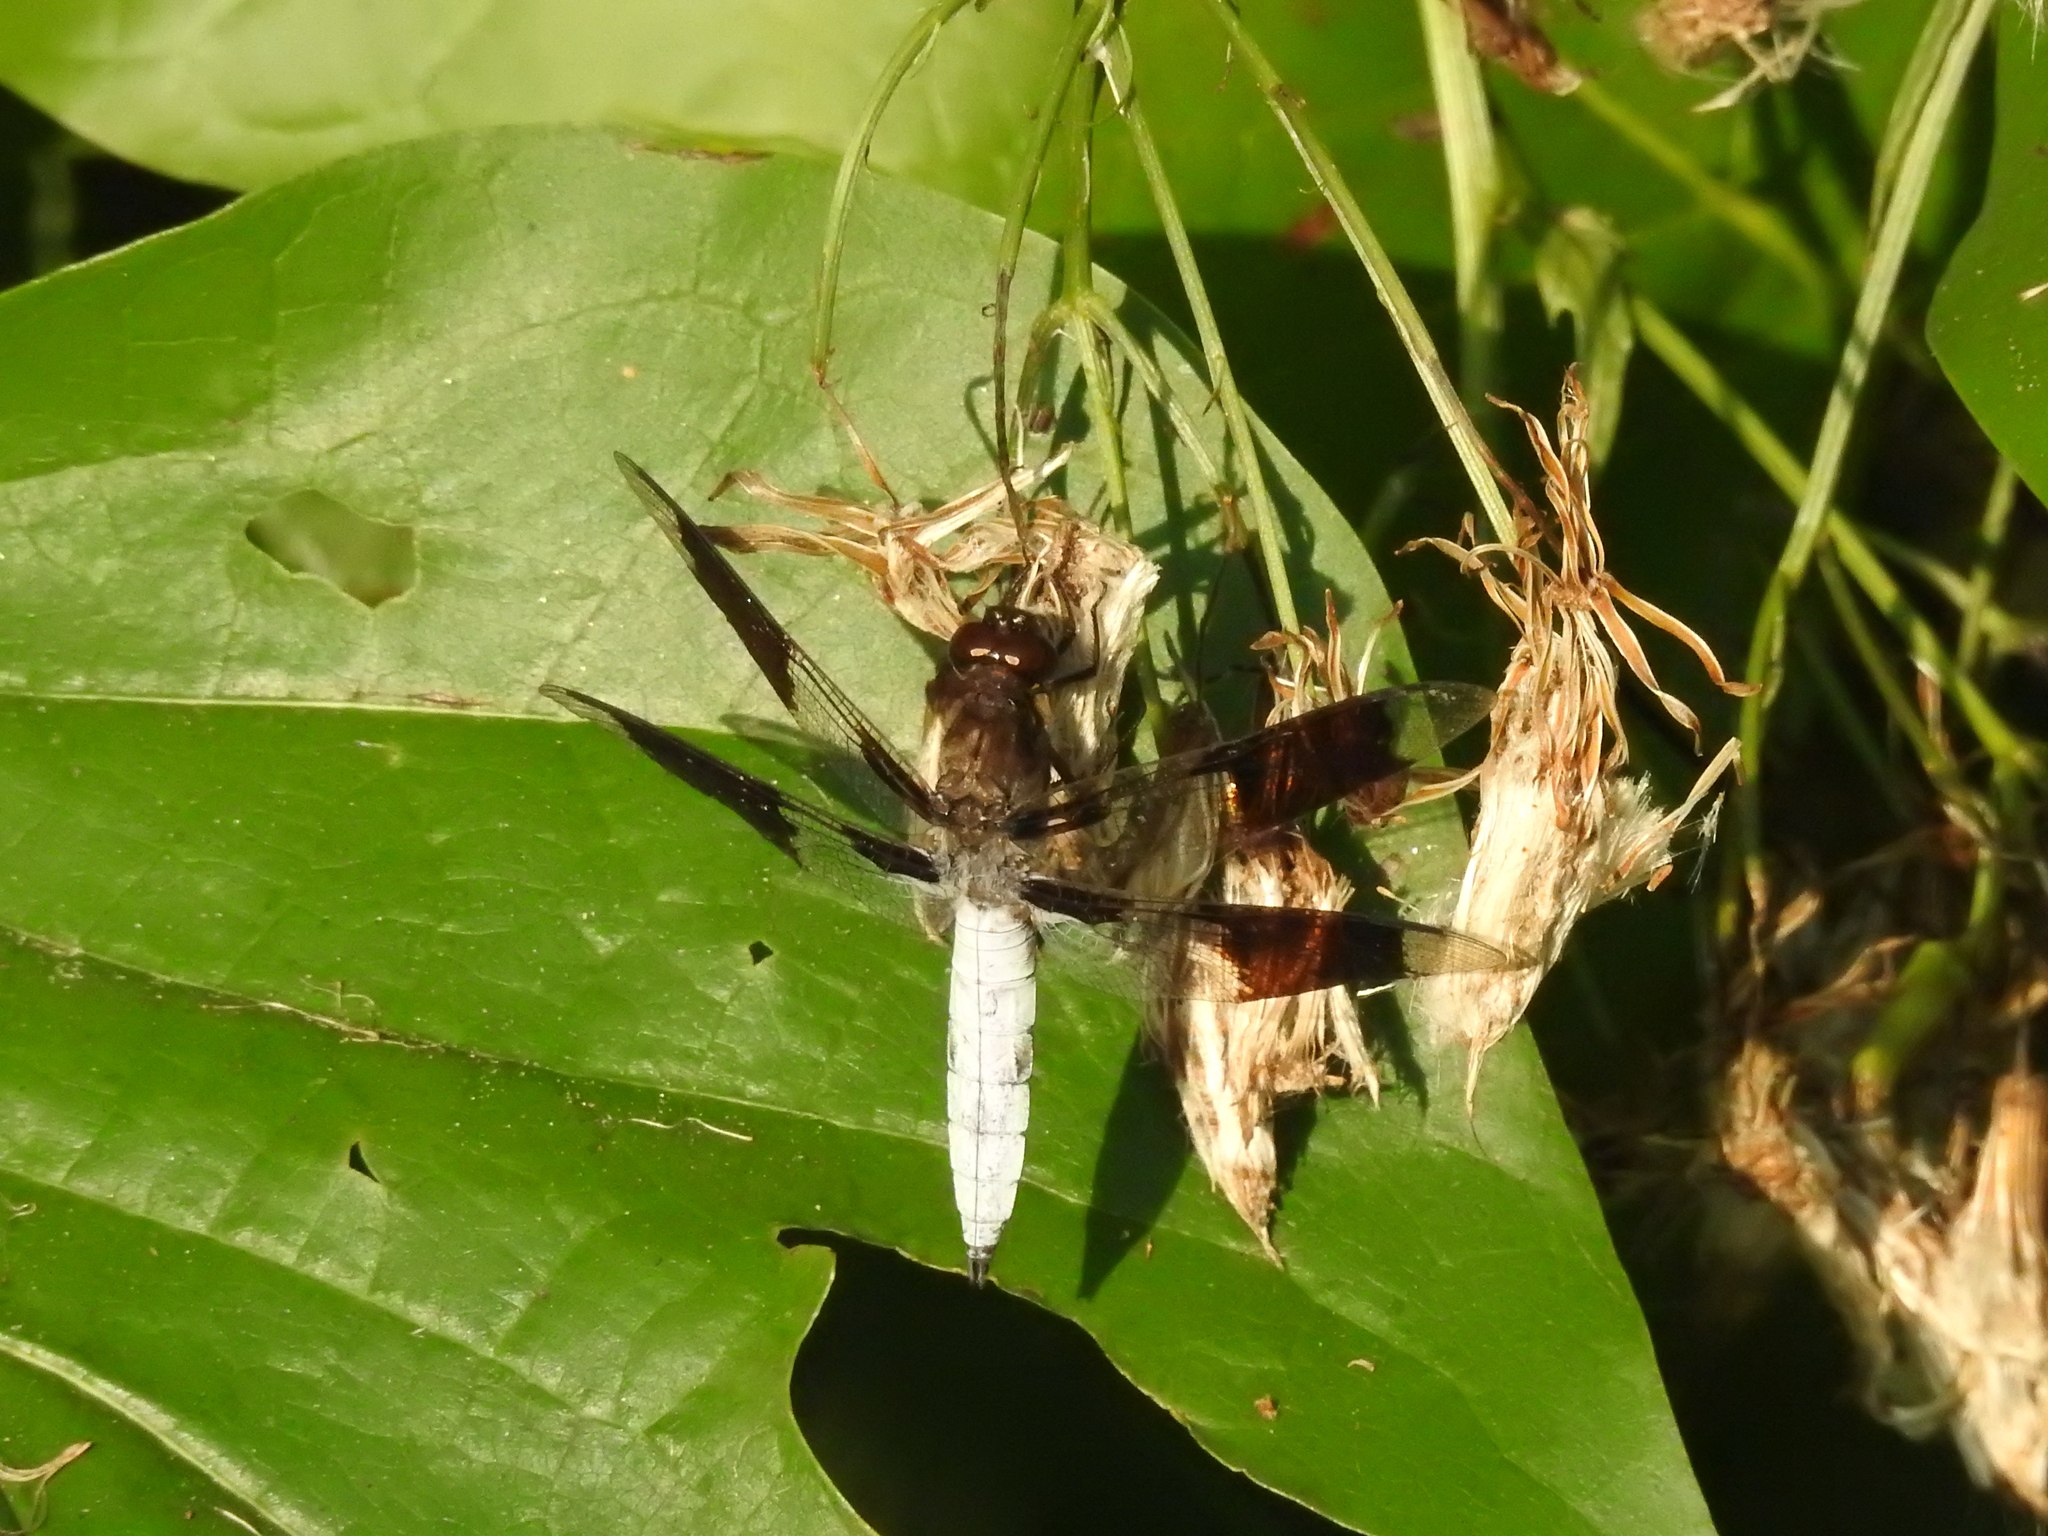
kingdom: Animalia
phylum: Arthropoda
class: Insecta
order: Odonata
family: Libellulidae
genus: Plathemis
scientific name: Plathemis lydia
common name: Common whitetail
